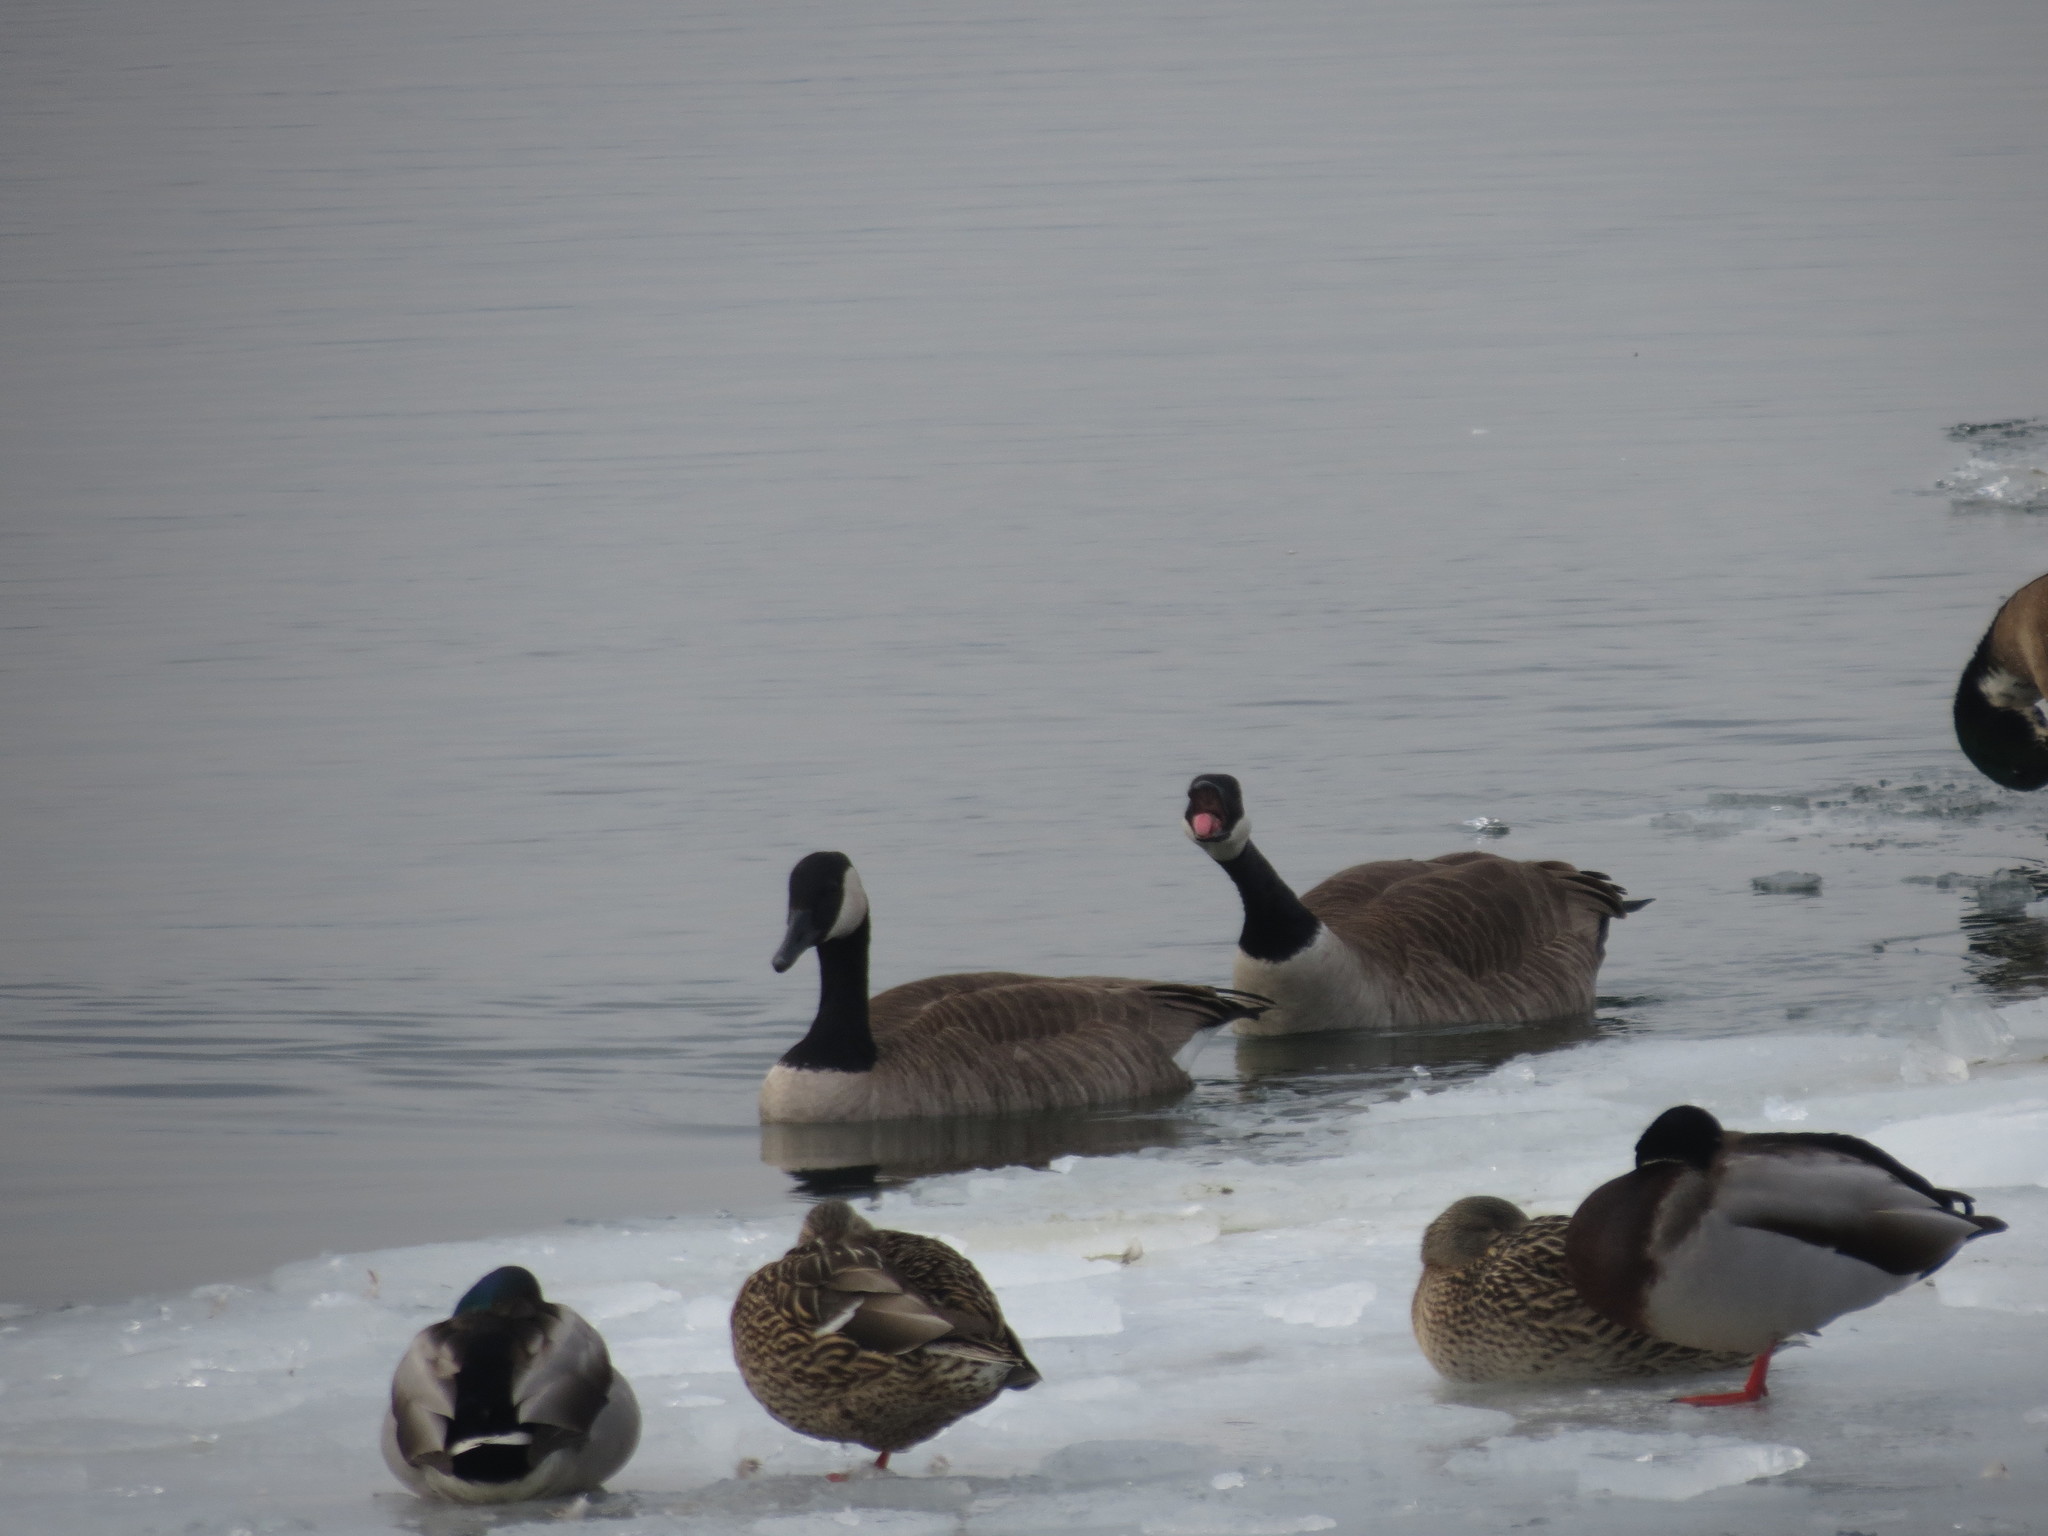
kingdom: Animalia
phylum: Chordata
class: Aves
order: Anseriformes
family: Anatidae
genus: Branta
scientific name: Branta canadensis
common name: Canada goose
